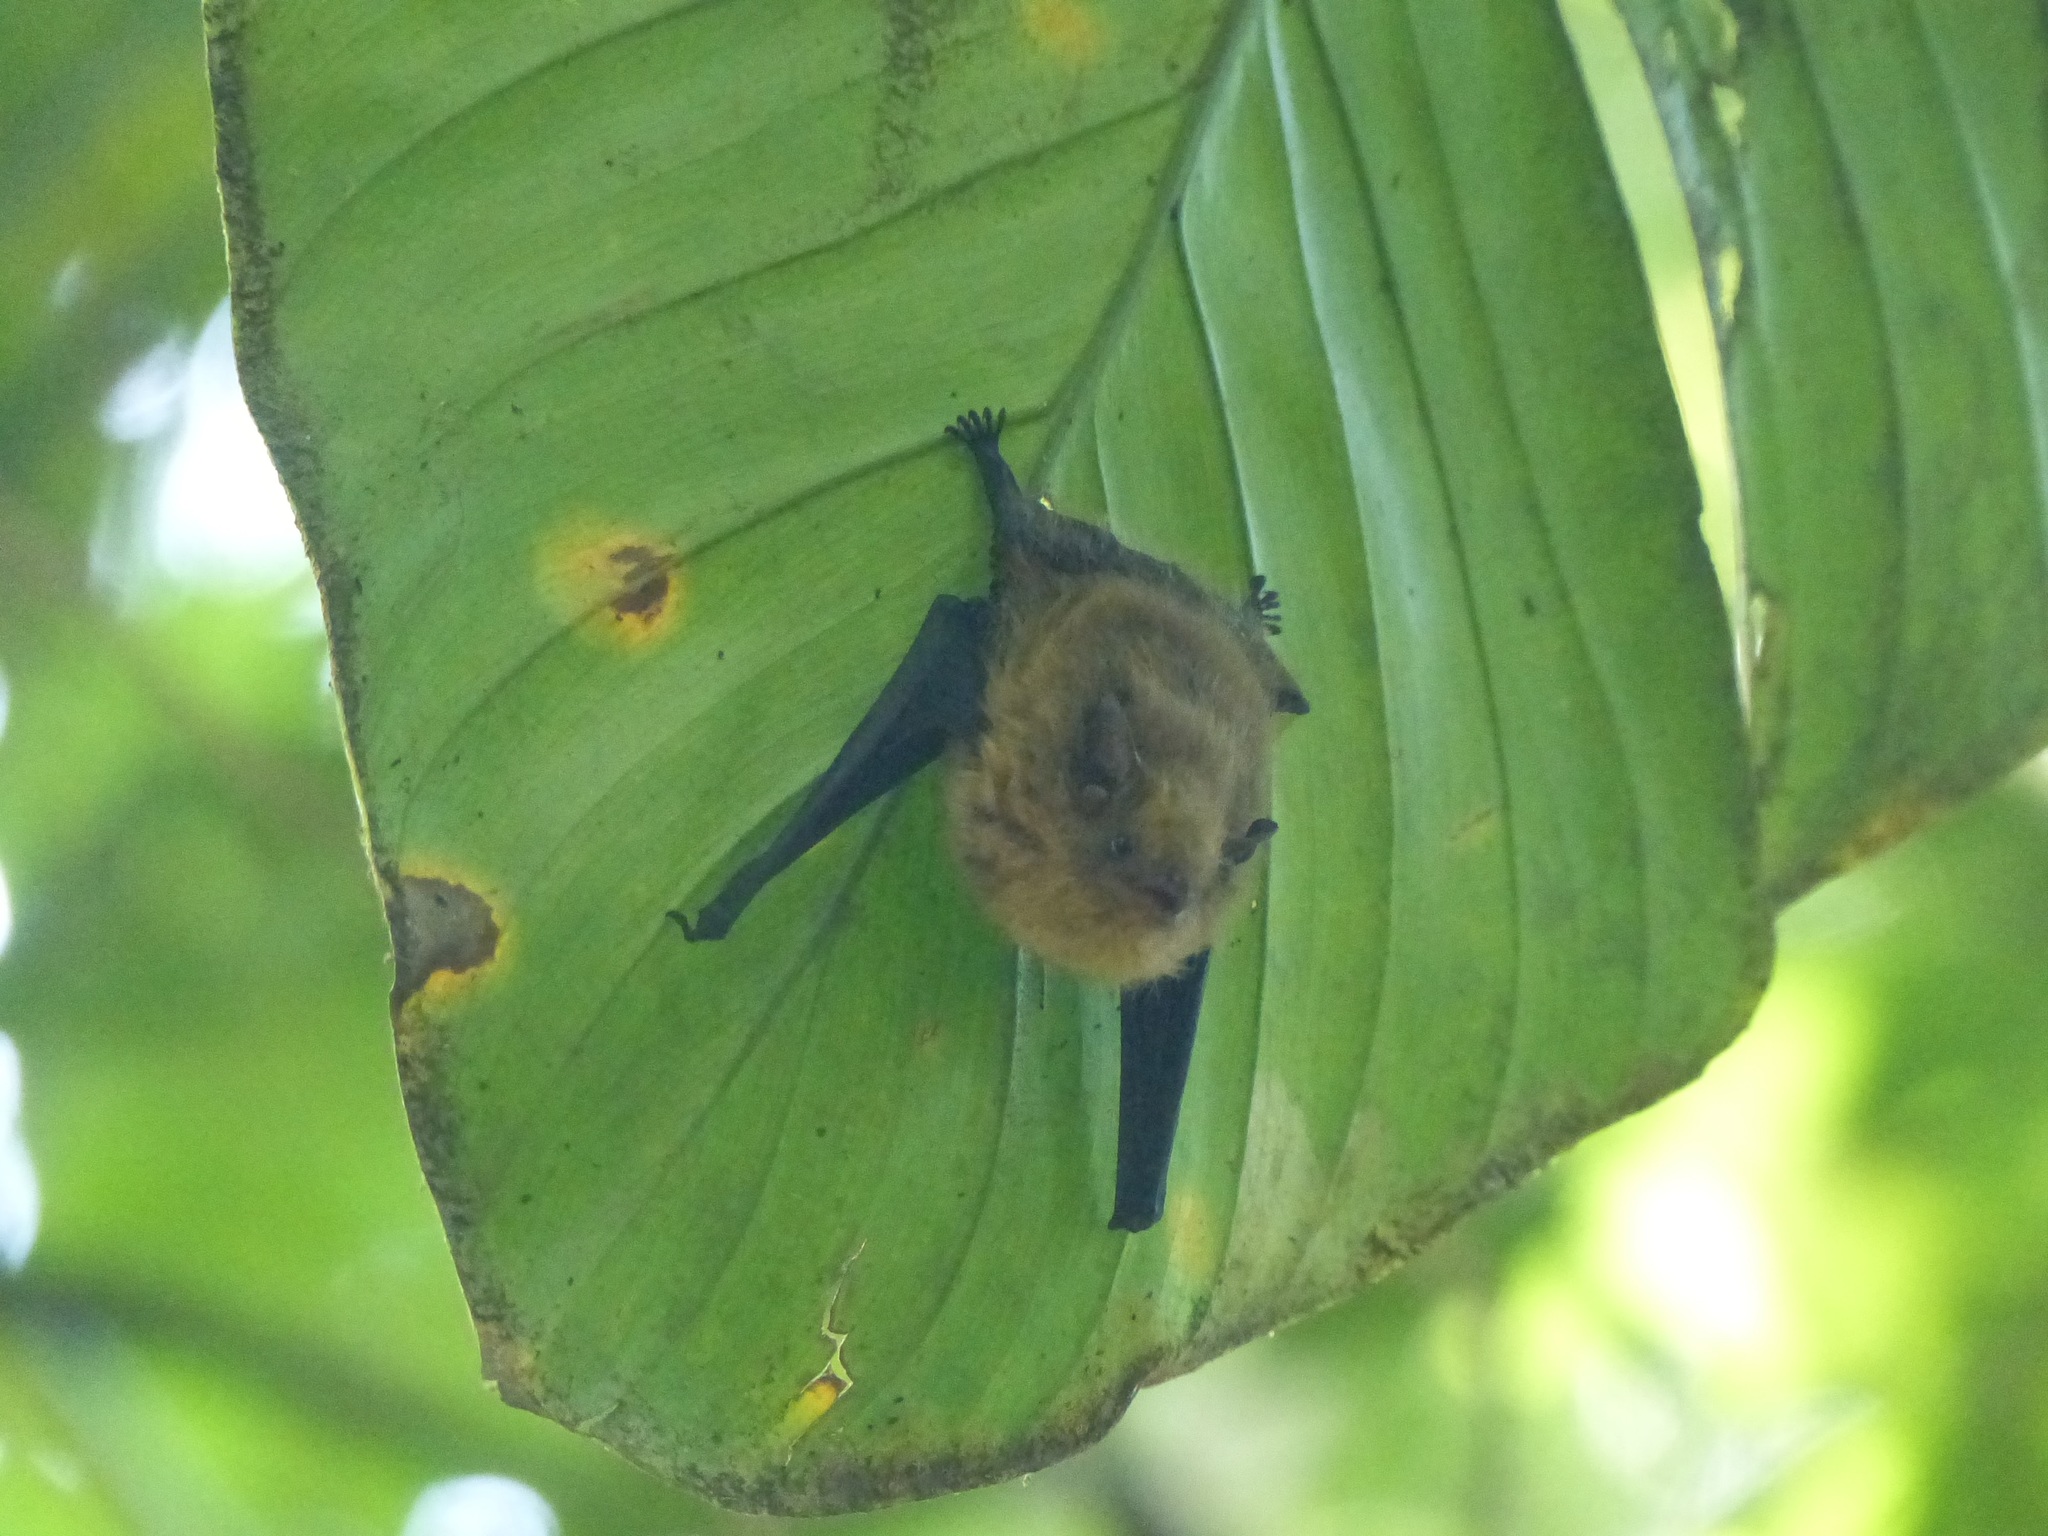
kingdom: Animalia
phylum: Chordata
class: Mammalia
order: Chiroptera
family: Emballonuridae
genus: Centronycteris
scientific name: Centronycteris centralis
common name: Thomas's shaggy bat
